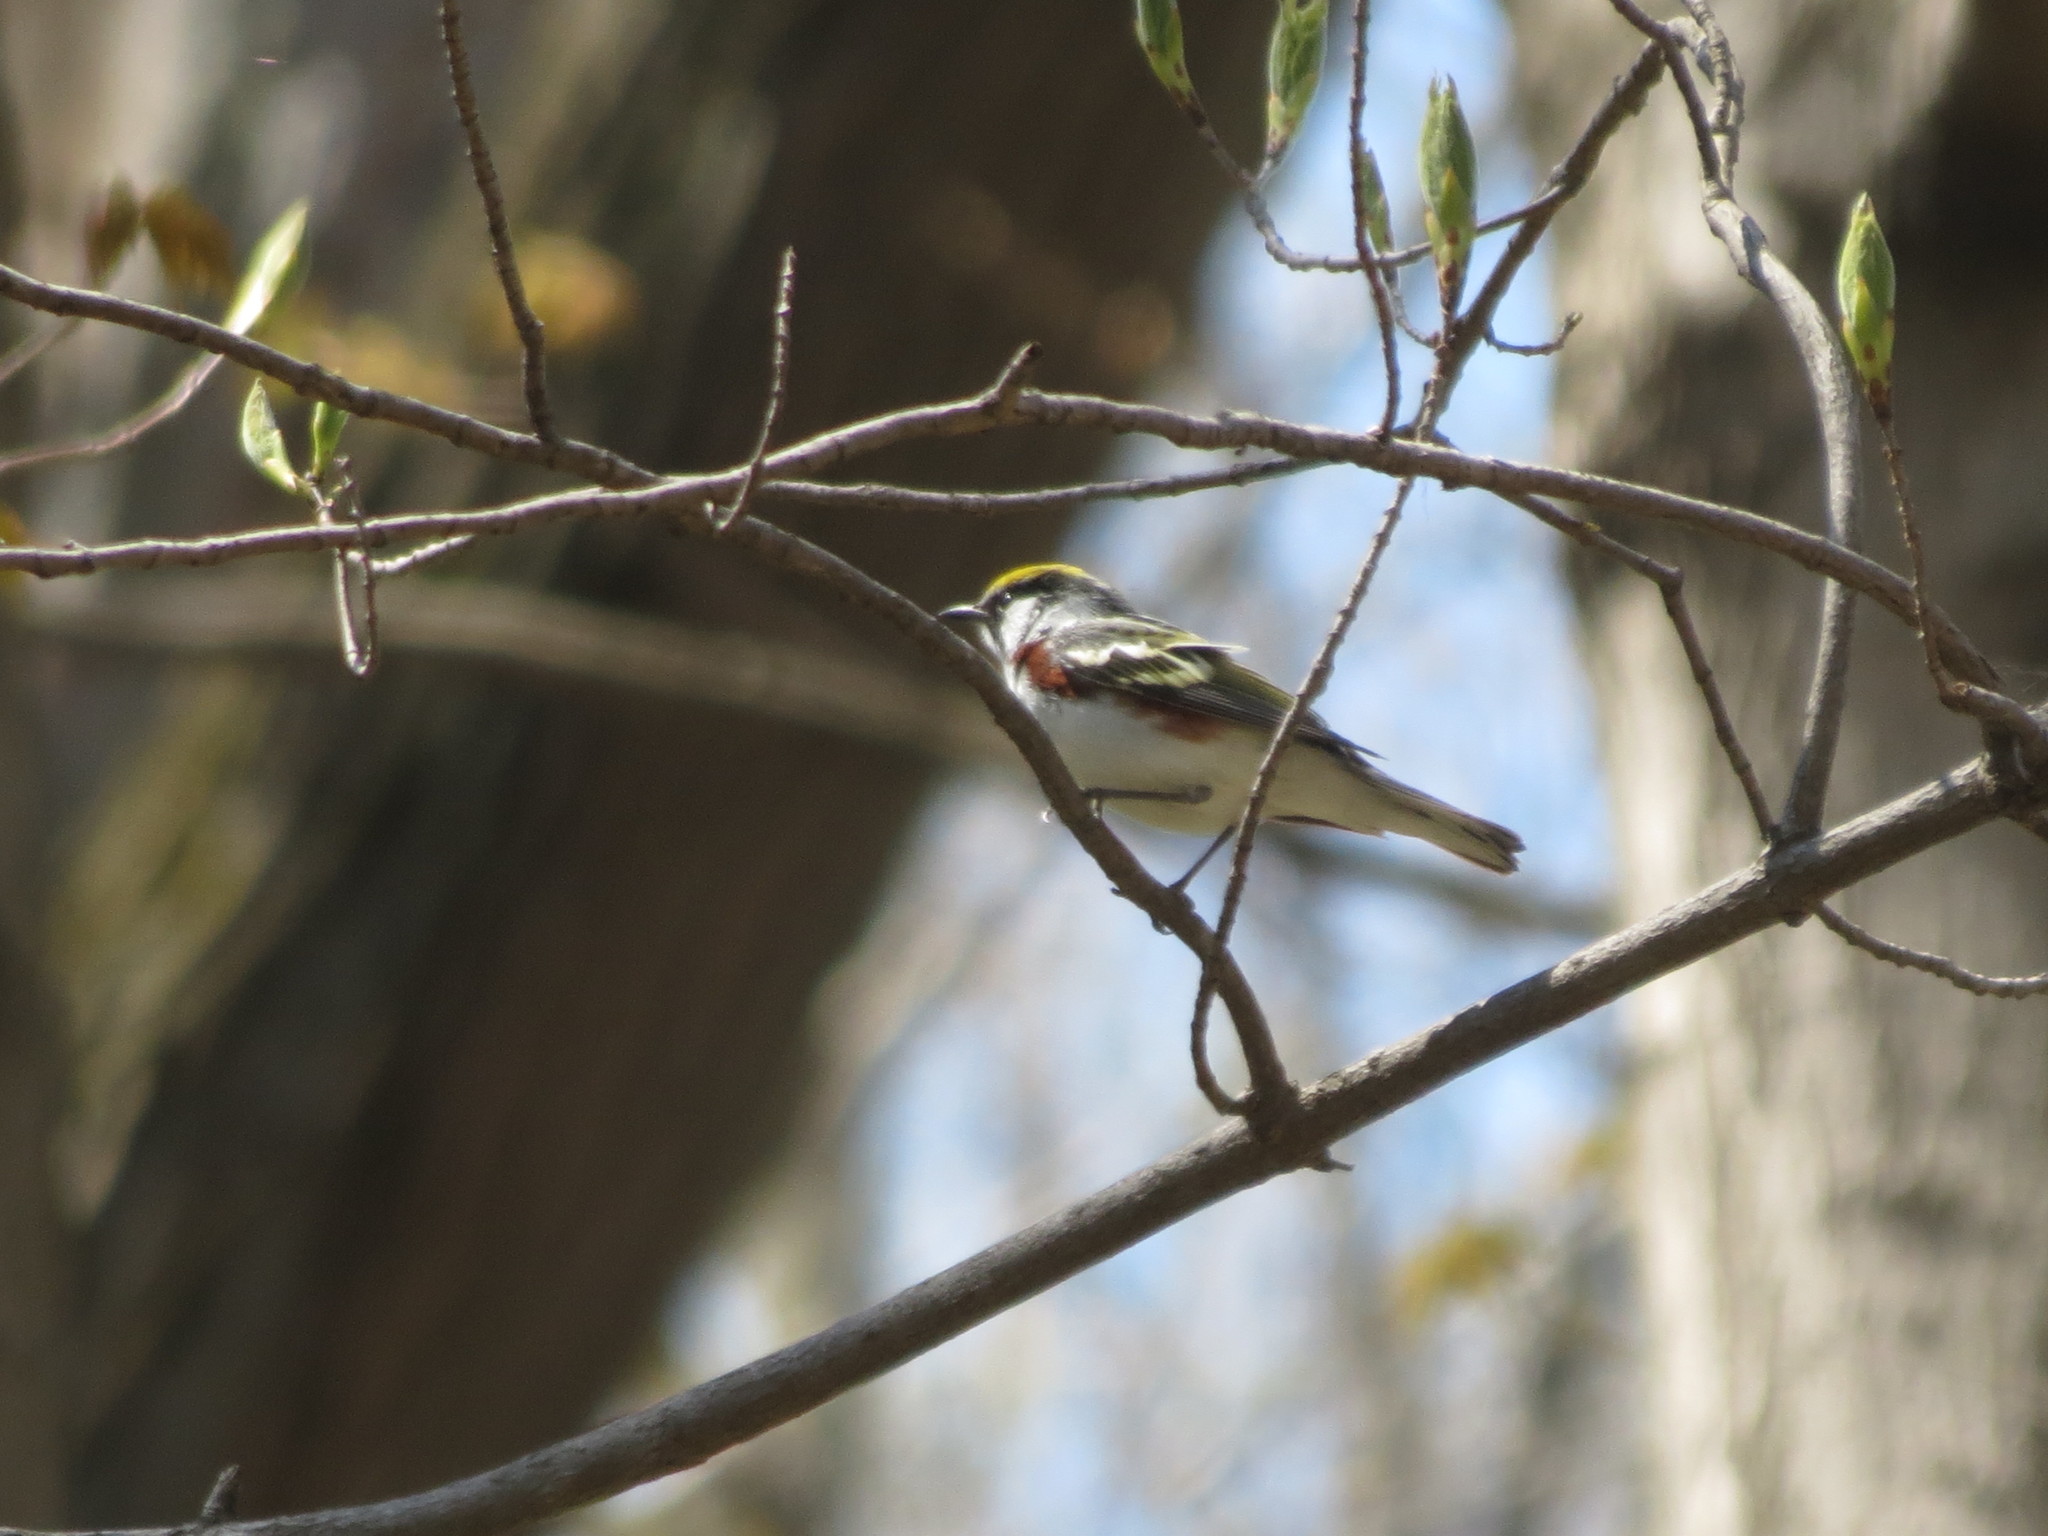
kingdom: Animalia
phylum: Chordata
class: Aves
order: Passeriformes
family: Parulidae
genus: Setophaga
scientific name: Setophaga pensylvanica
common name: Chestnut-sided warbler
